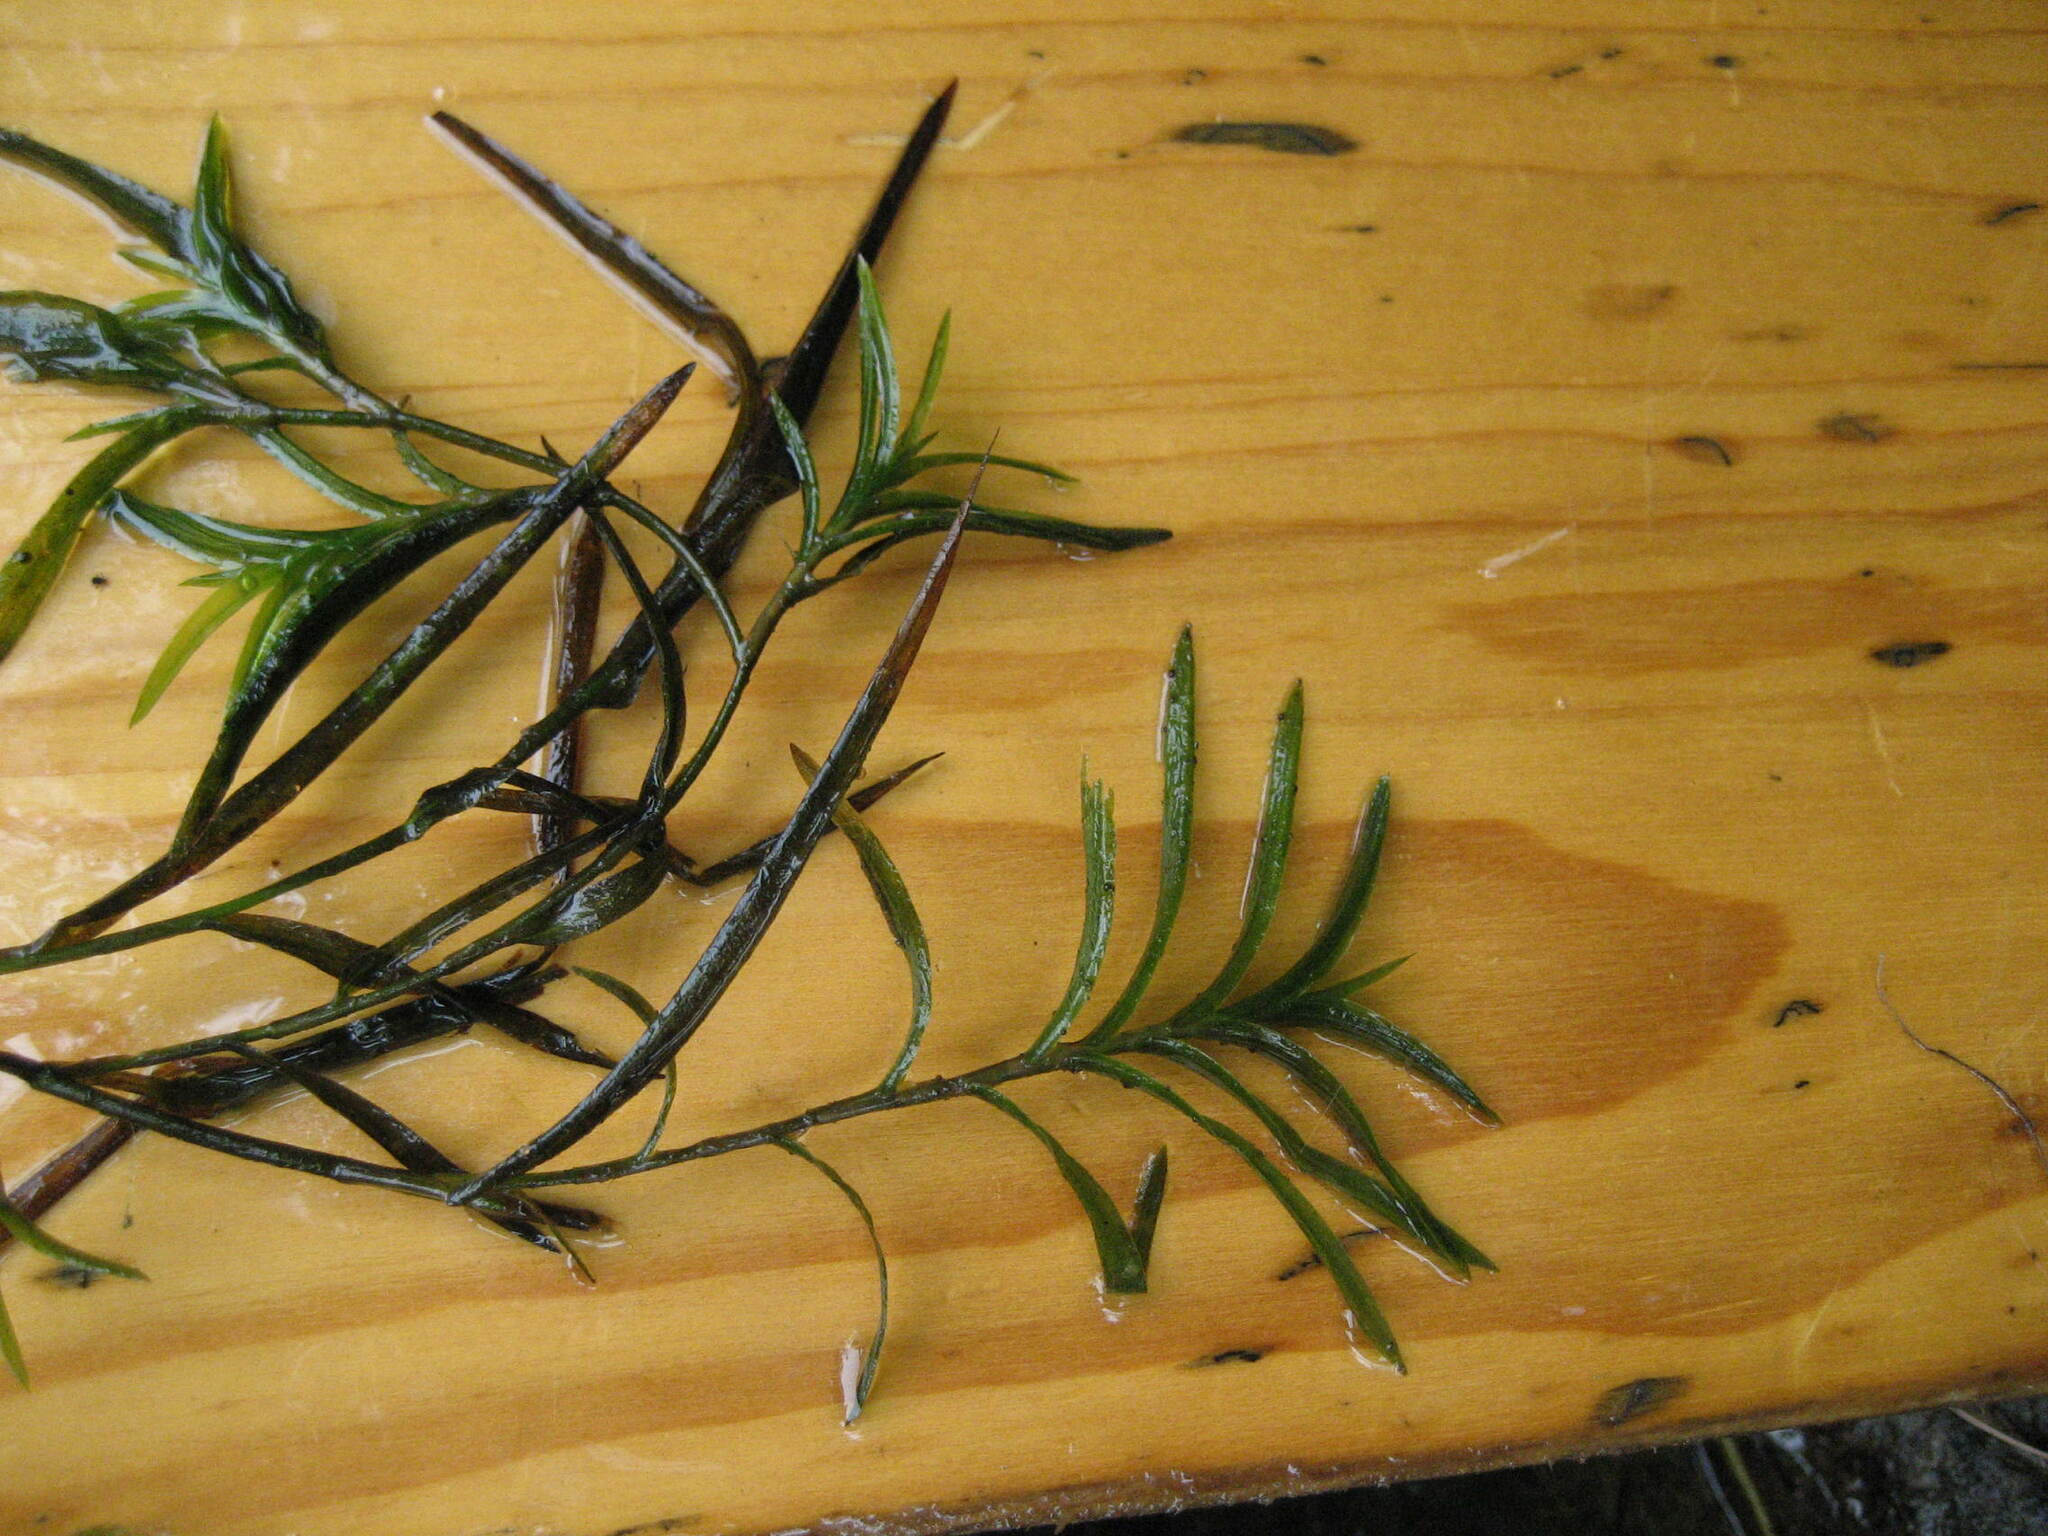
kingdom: Plantae
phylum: Tracheophyta
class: Liliopsida
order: Alismatales
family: Potamogetonaceae
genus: Potamogeton
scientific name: Potamogeton robbinsii
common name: Fern pondweed
